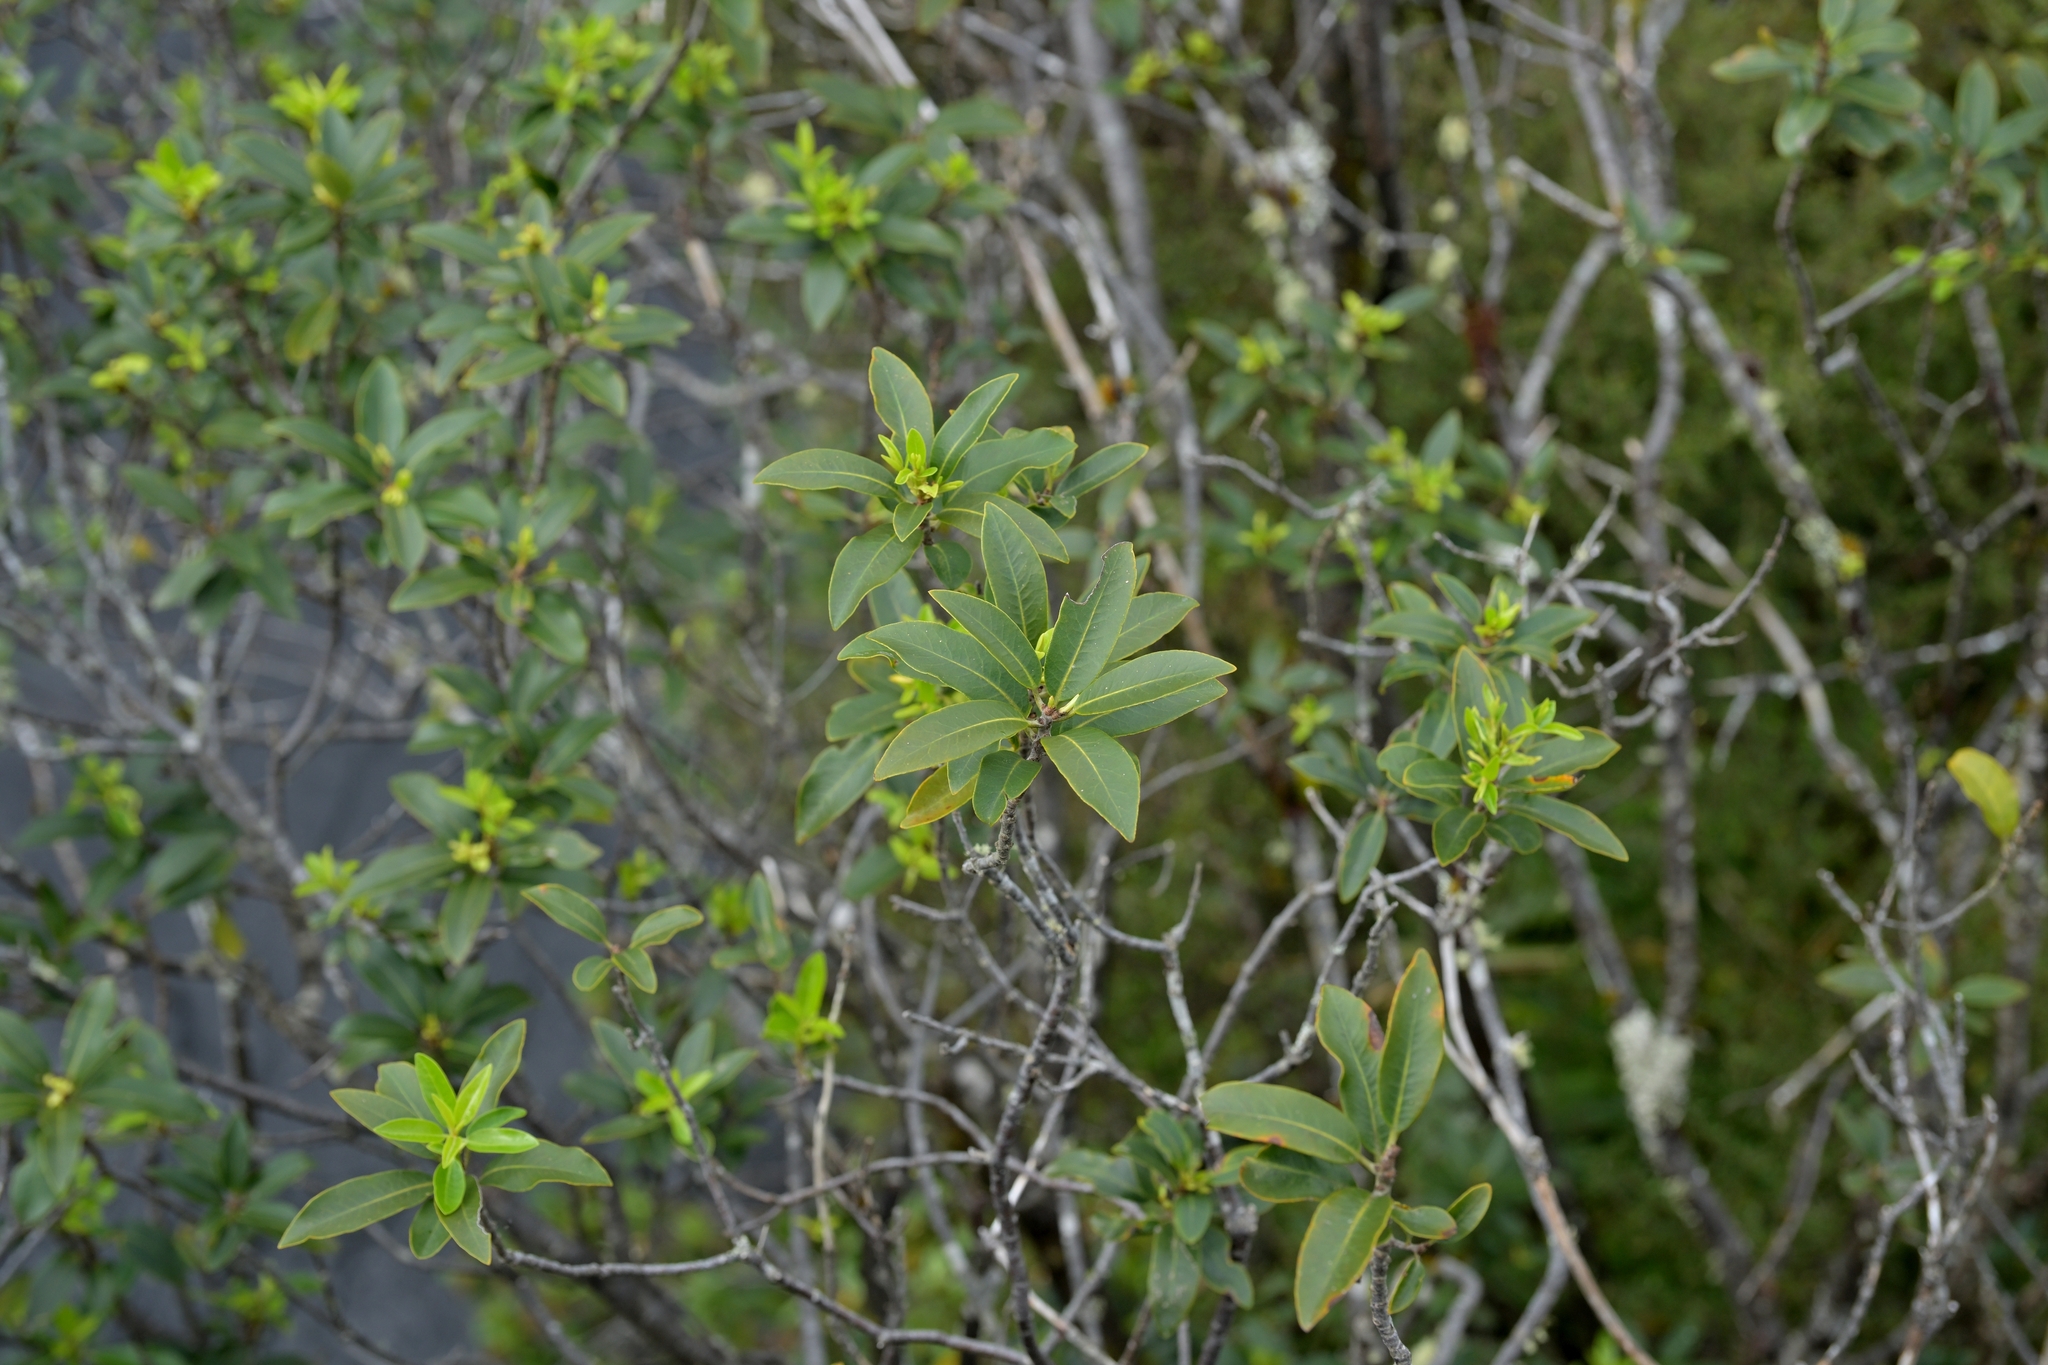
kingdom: Plantae
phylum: Tracheophyta
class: Magnoliopsida
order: Apiales
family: Pittosporaceae
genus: Pittosporum
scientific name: Pittosporum colensoi
